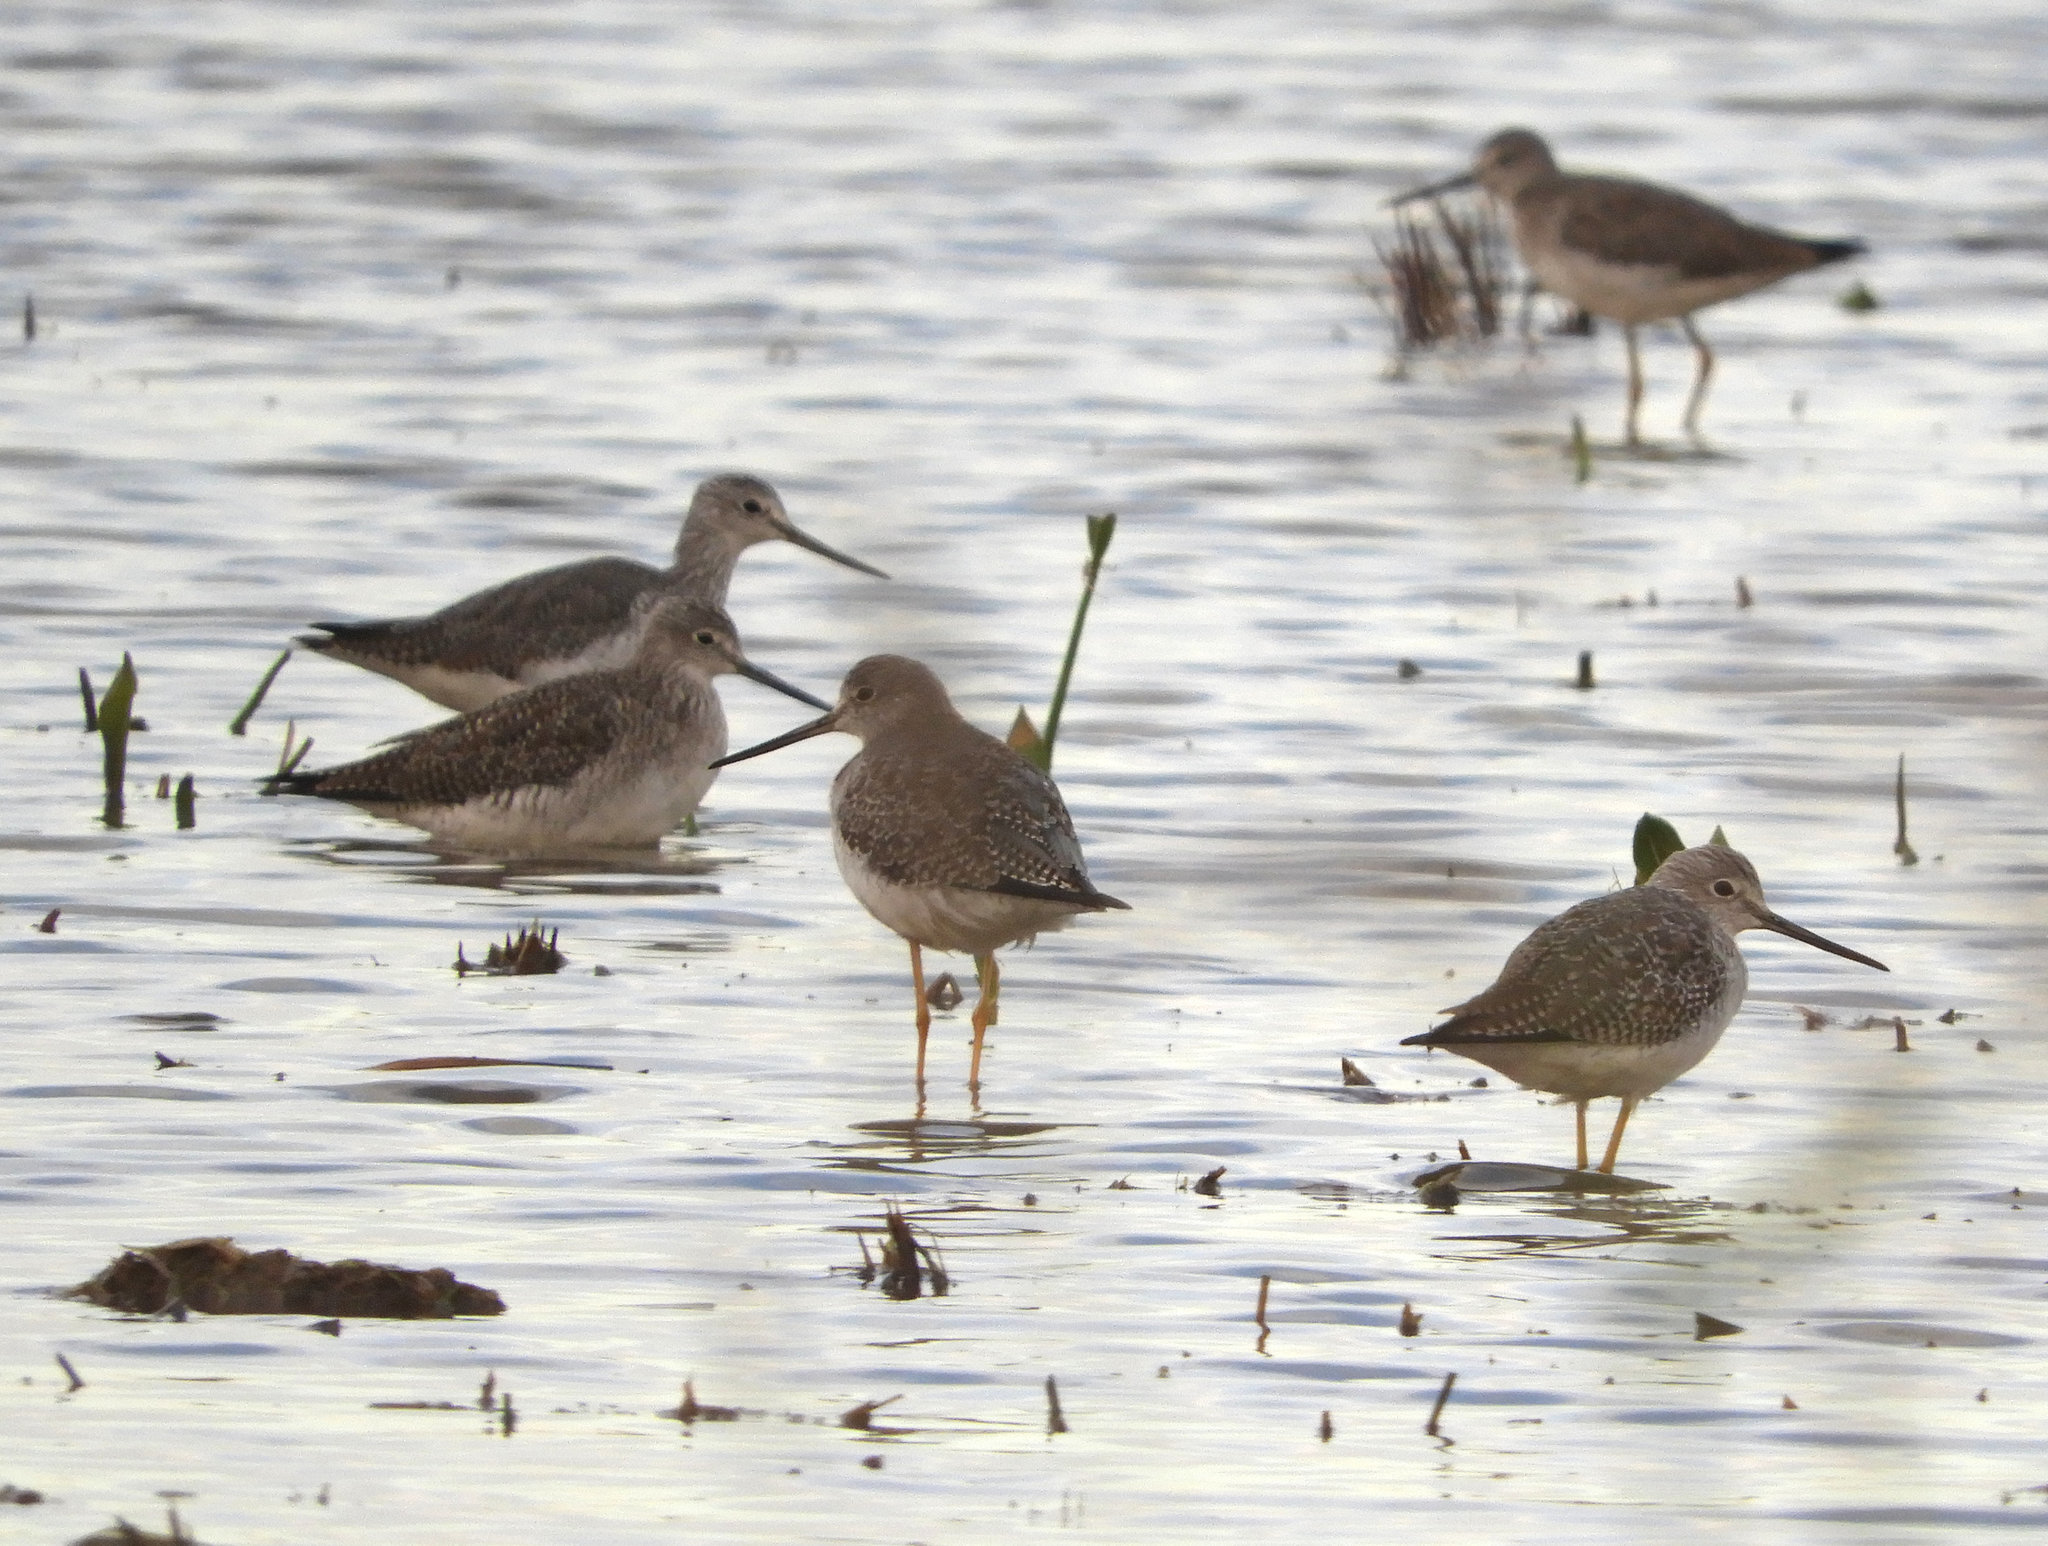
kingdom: Animalia
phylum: Chordata
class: Aves
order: Charadriiformes
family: Scolopacidae
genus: Tringa
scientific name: Tringa melanoleuca
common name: Greater yellowlegs
